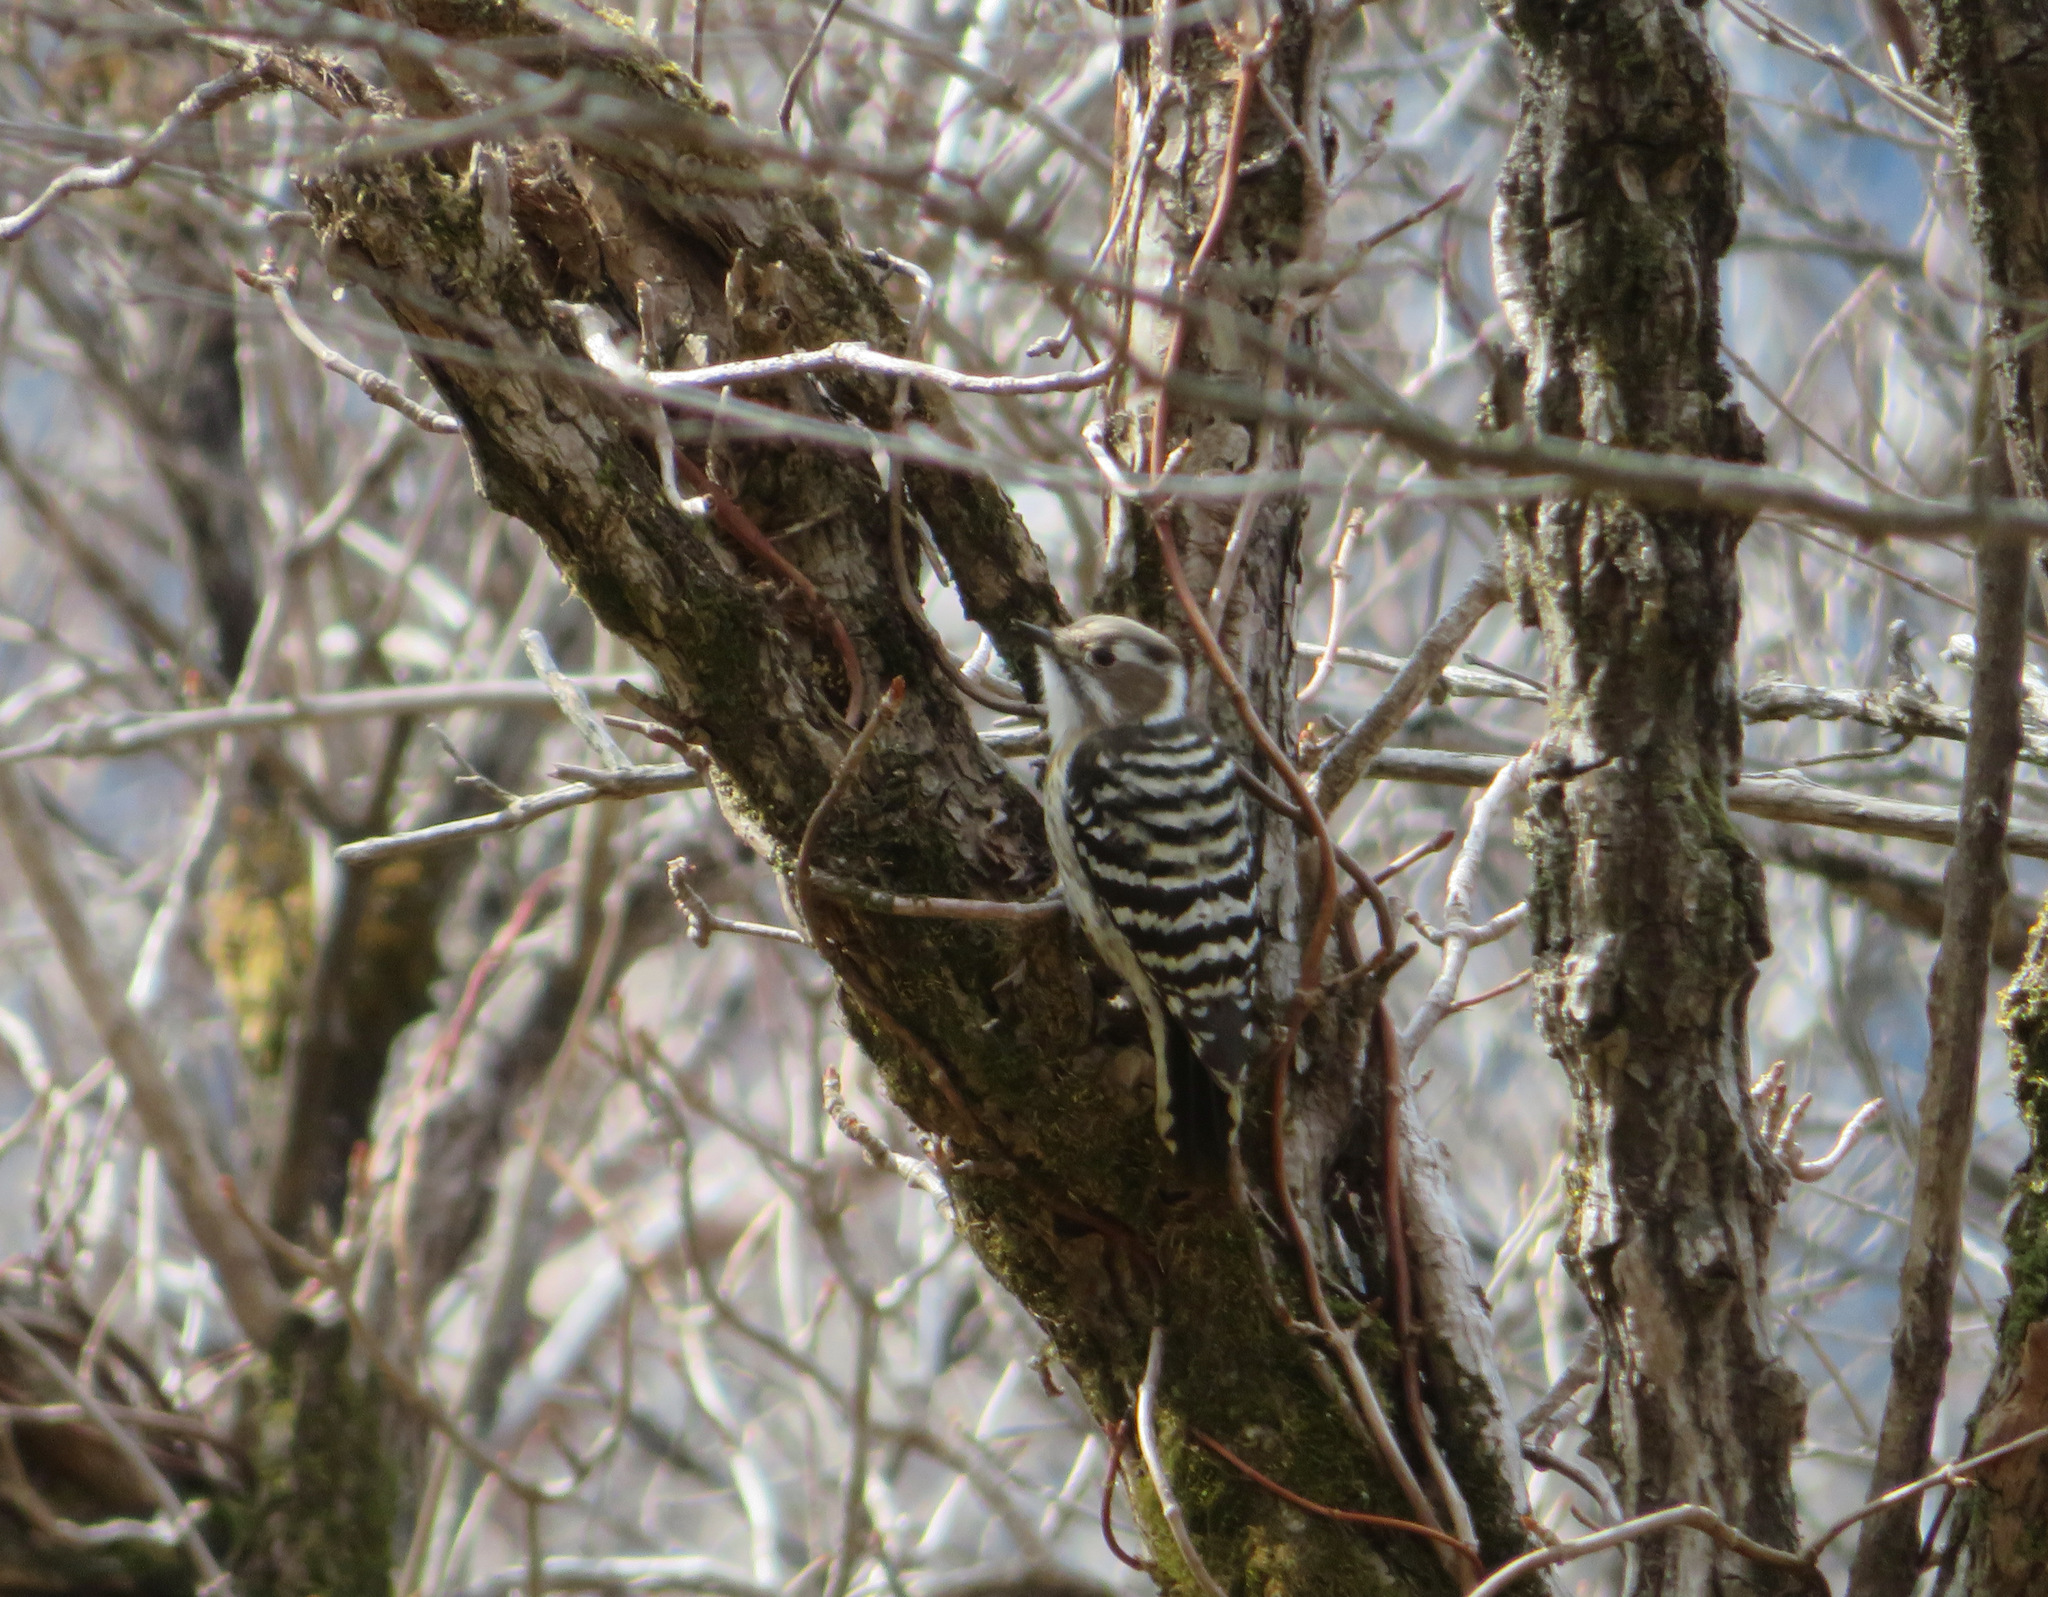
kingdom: Animalia
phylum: Chordata
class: Aves
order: Piciformes
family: Picidae
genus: Yungipicus
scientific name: Yungipicus kizuki
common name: Japanese pygmy woodpecker
